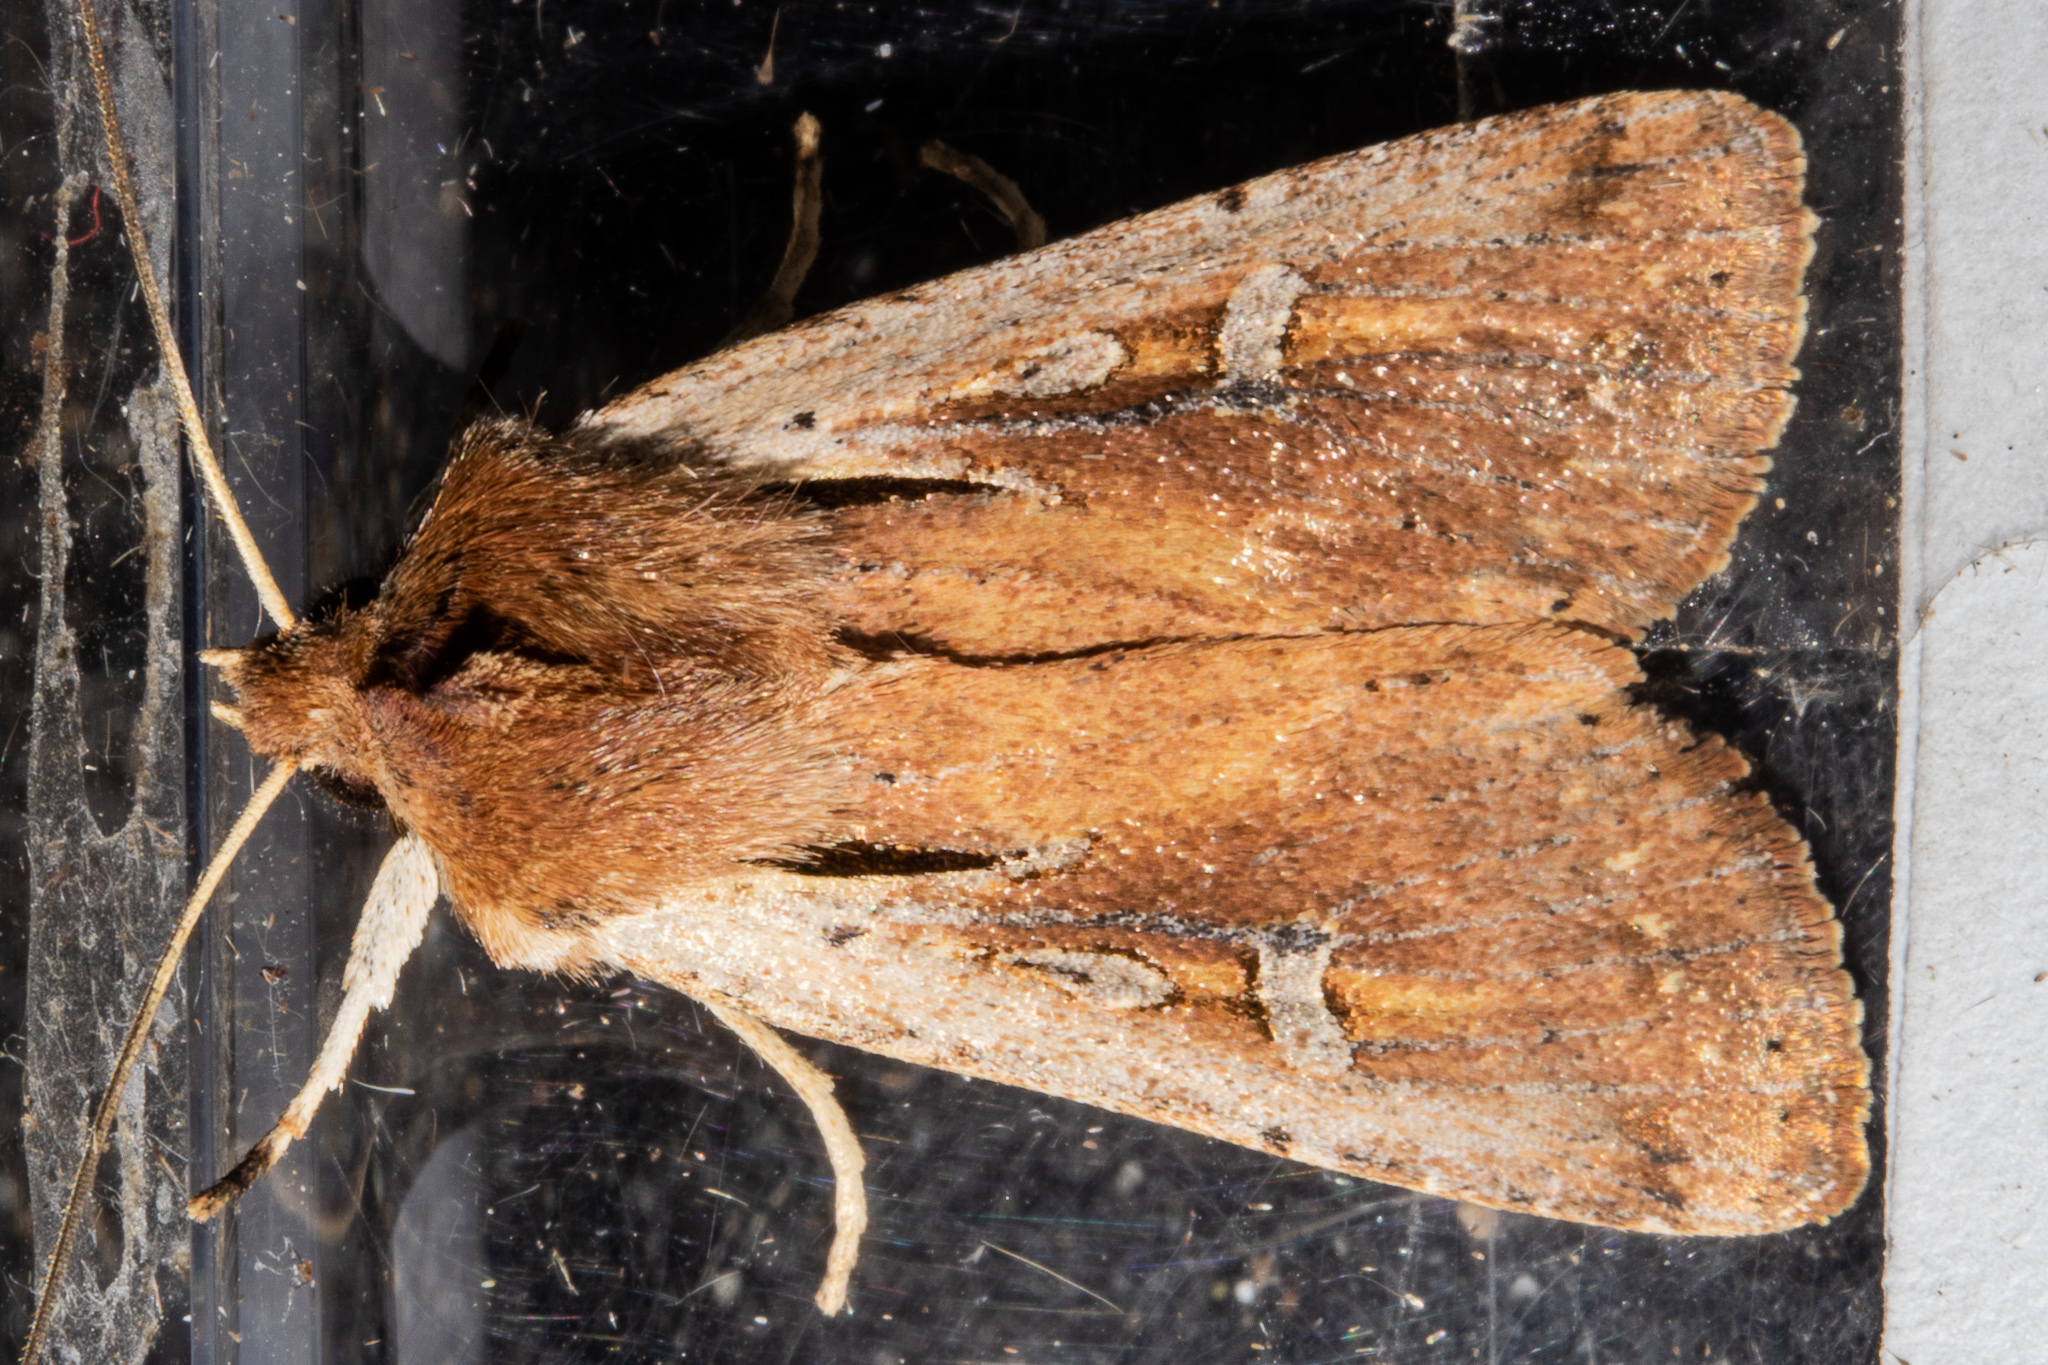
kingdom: Animalia
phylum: Arthropoda
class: Insecta
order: Lepidoptera
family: Noctuidae
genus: Ichneutica
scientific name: Ichneutica atristriga
